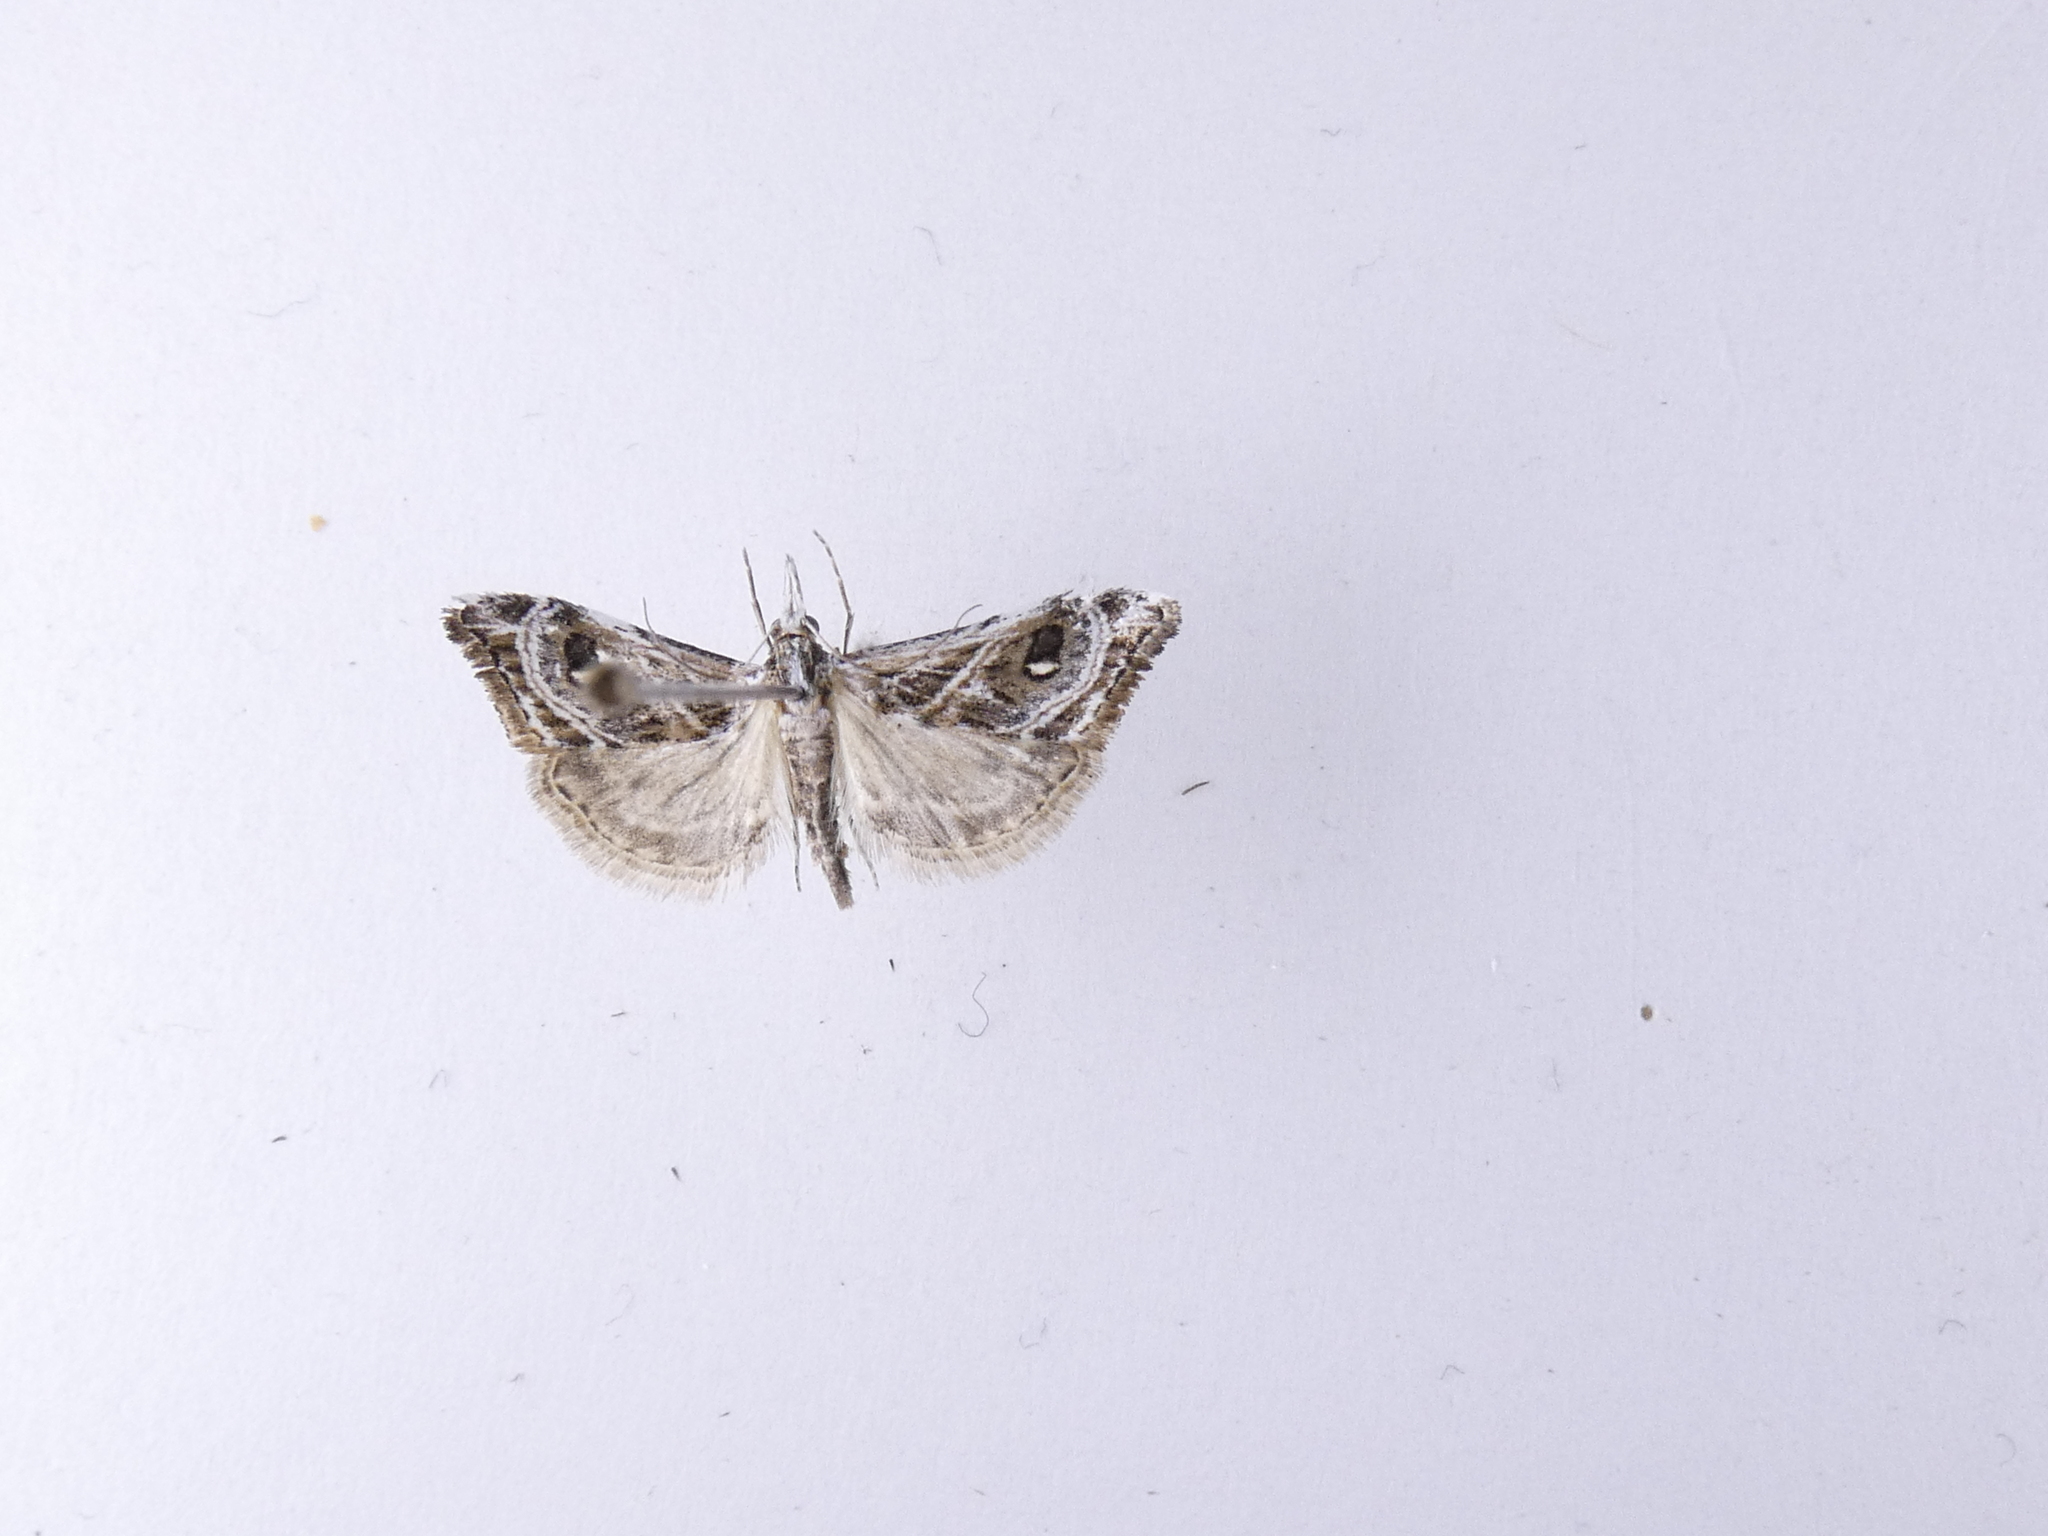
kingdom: Animalia
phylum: Arthropoda
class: Insecta
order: Lepidoptera
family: Crambidae
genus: Gadira
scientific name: Gadira acerella
